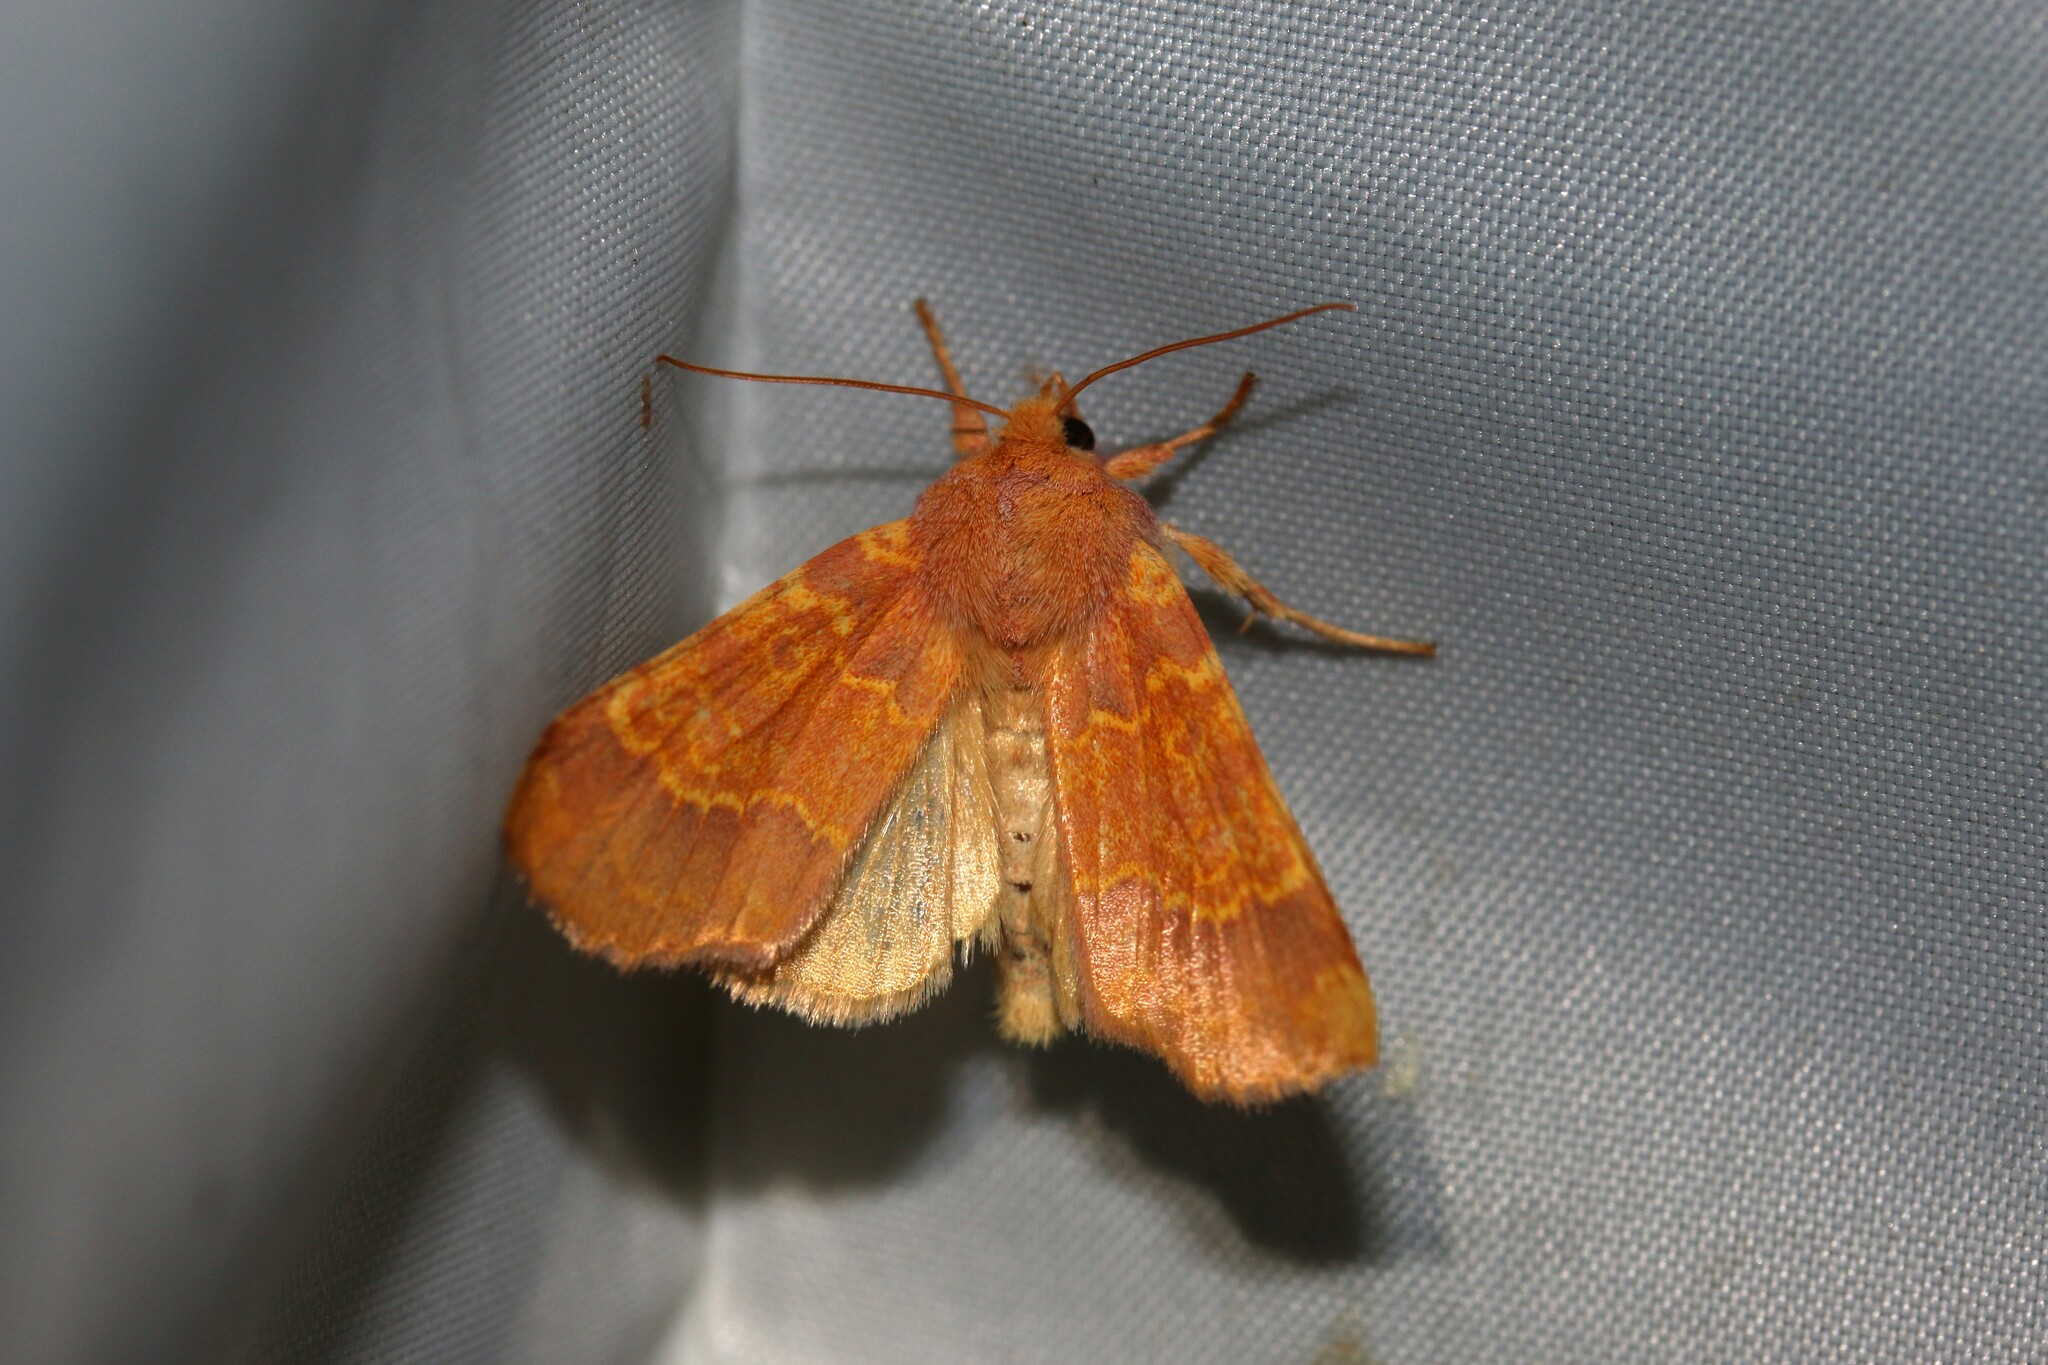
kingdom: Animalia
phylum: Arthropoda
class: Insecta
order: Lepidoptera
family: Noctuidae
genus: Tiliacea
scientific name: Tiliacea aurago
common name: Barred sallow
